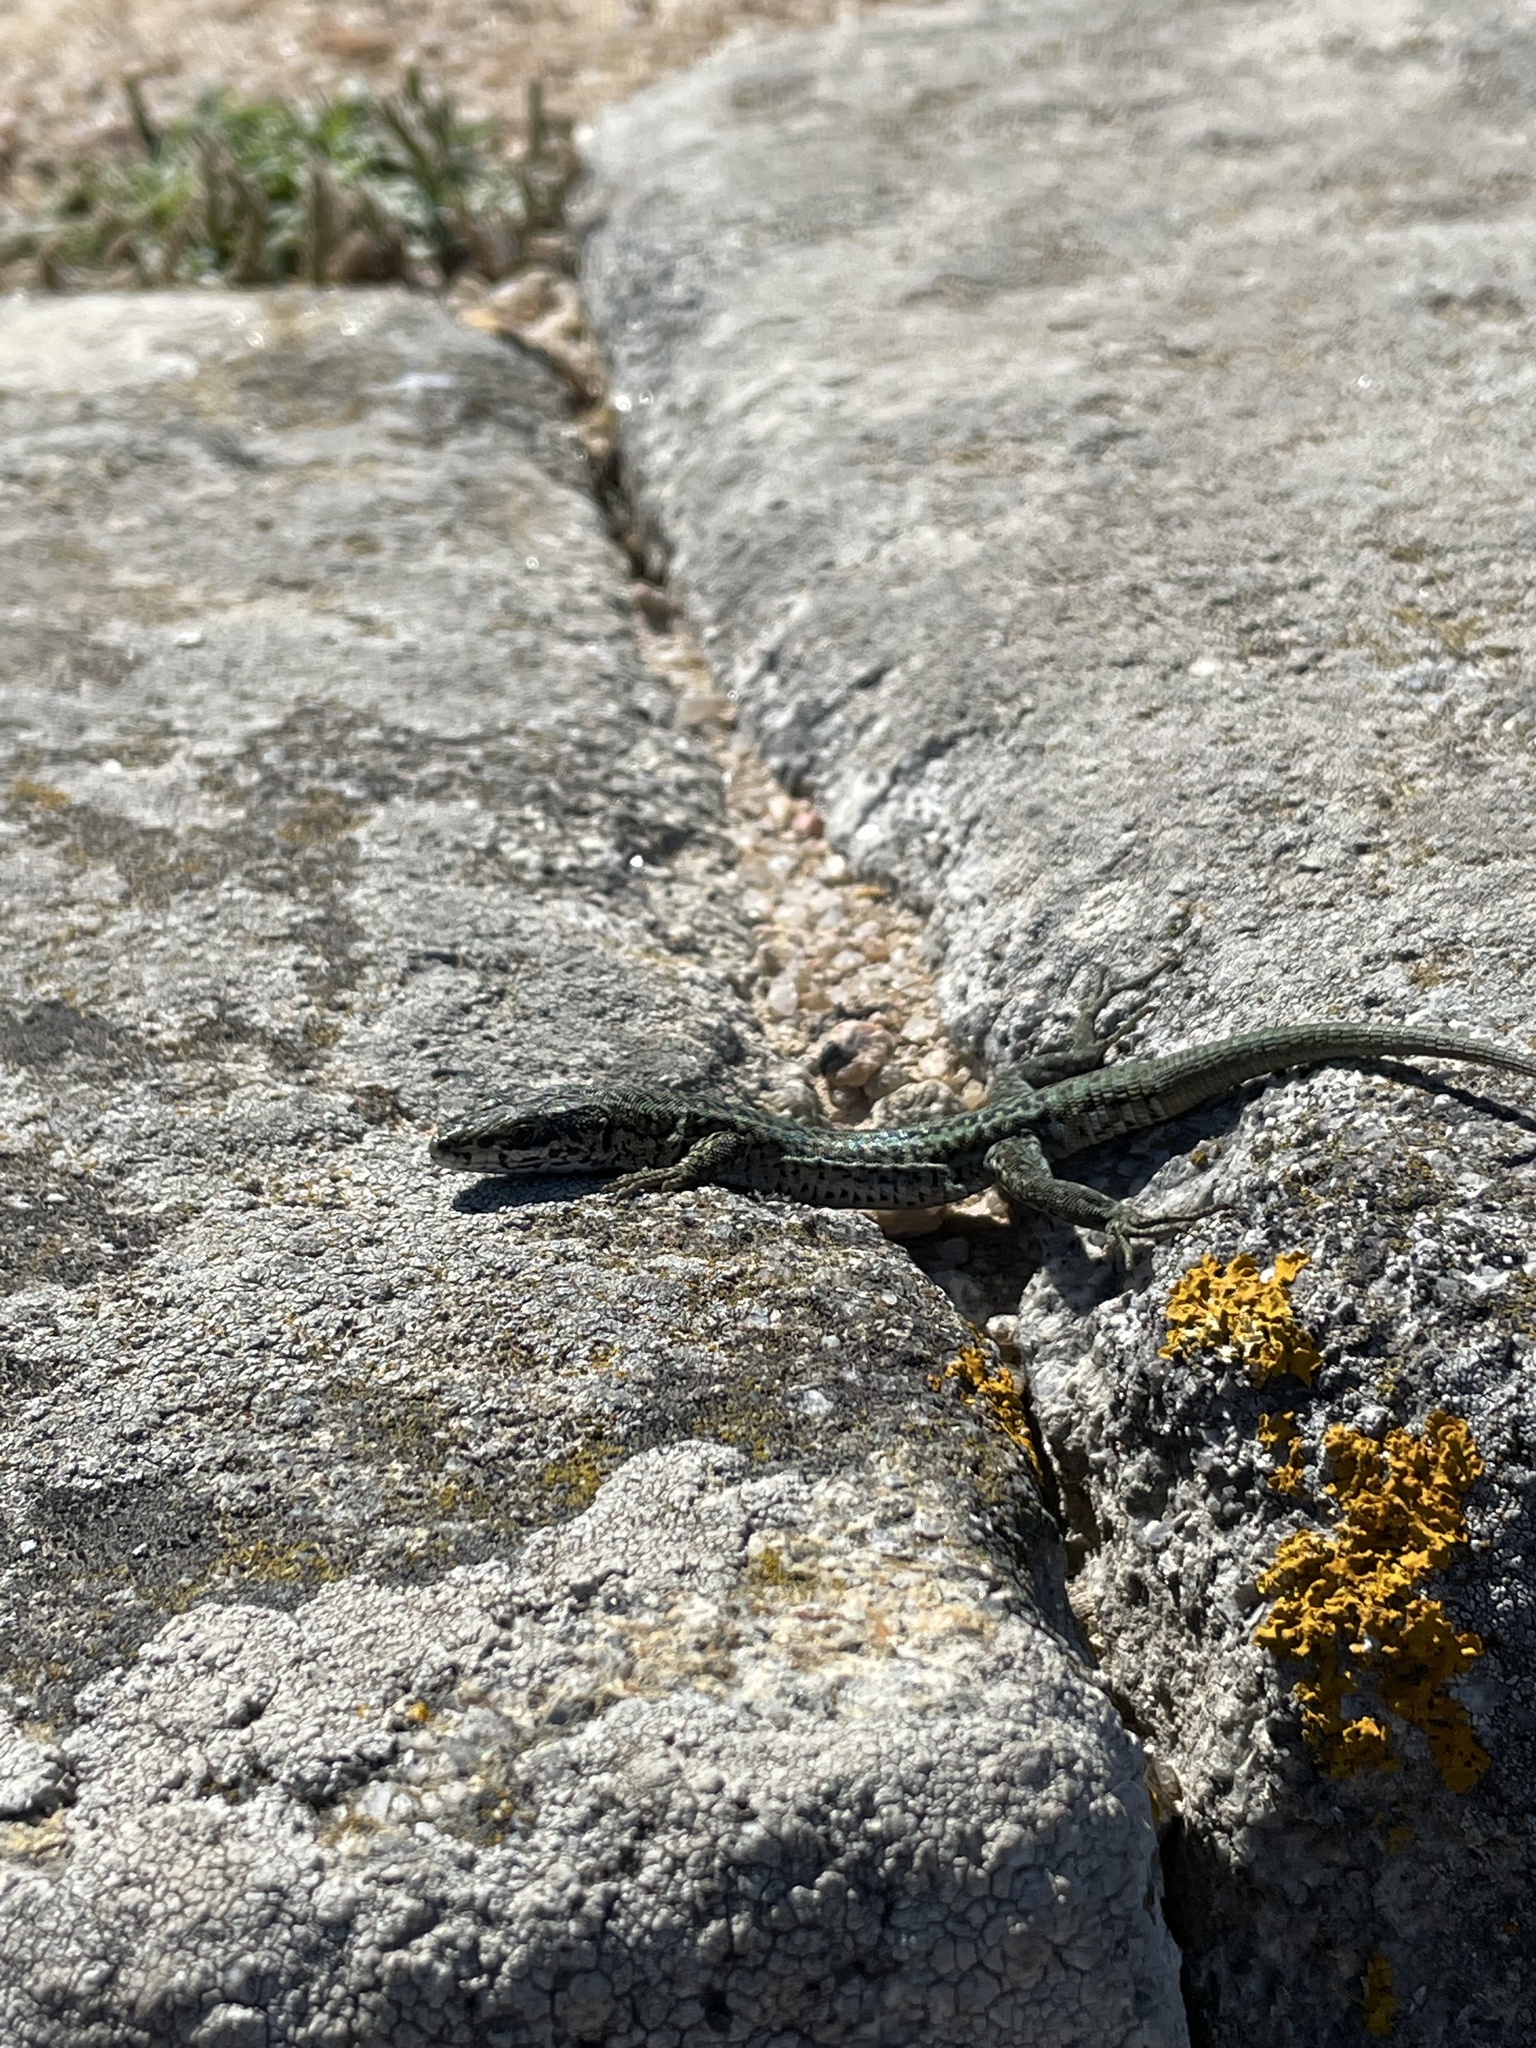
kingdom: Animalia
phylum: Chordata
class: Squamata
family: Lacertidae
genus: Podarcis
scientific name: Podarcis
